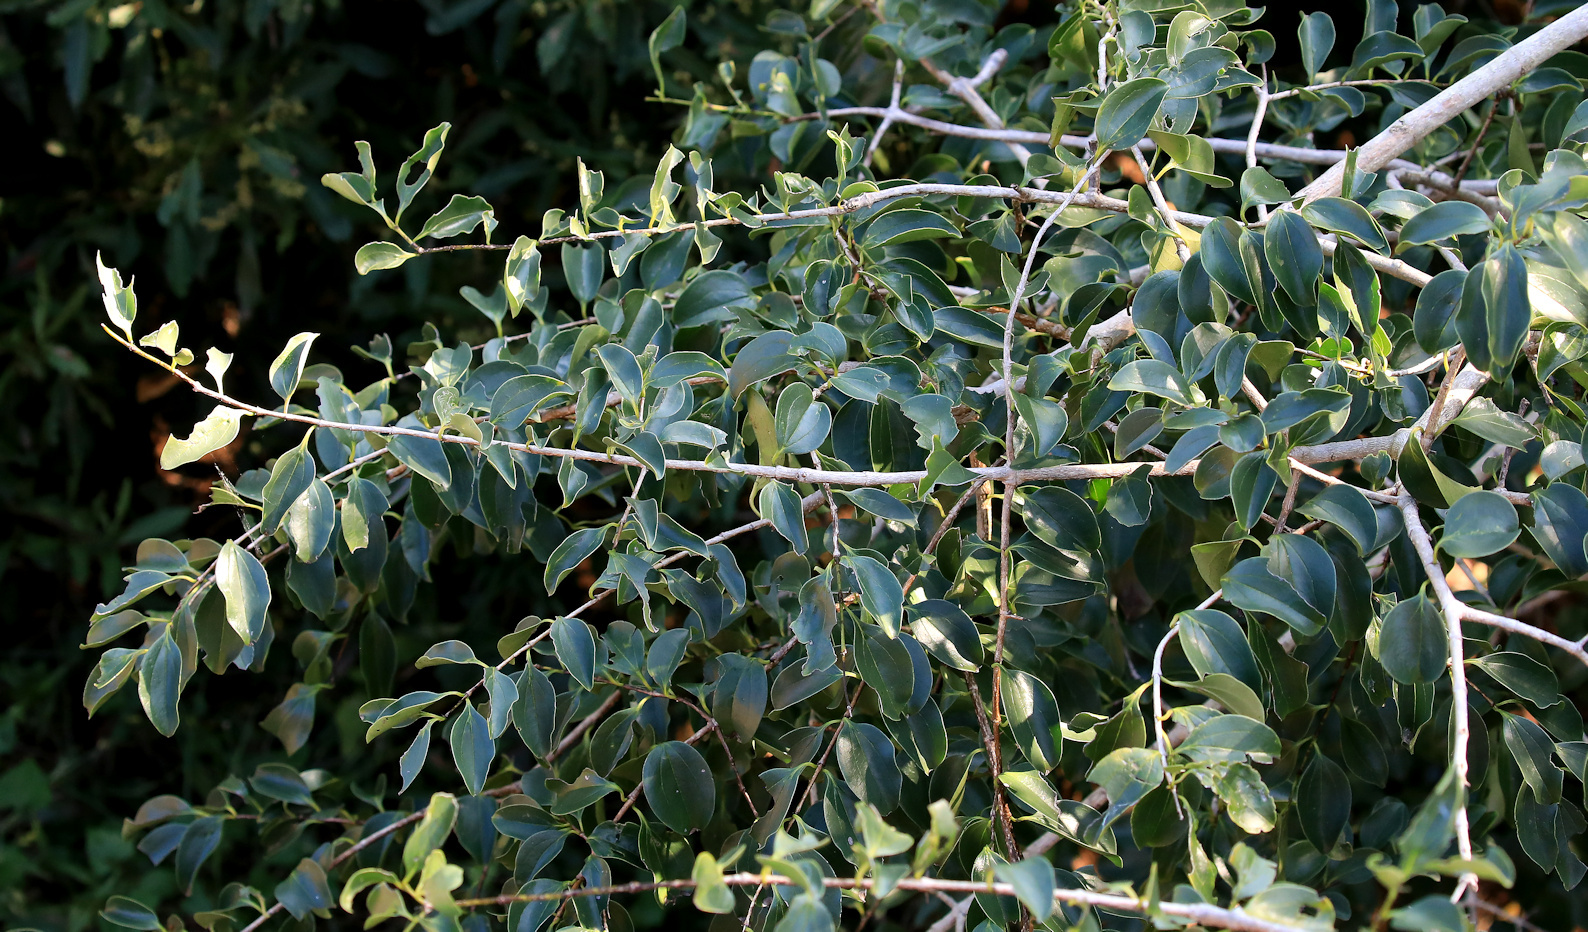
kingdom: Plantae
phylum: Tracheophyta
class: Magnoliopsida
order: Gentianales
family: Loganiaceae
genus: Strychnos
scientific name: Strychnos spinosa
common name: Natal orange
